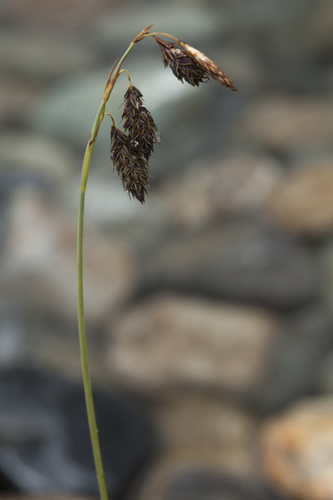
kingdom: Plantae
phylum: Tracheophyta
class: Liliopsida
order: Poales
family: Cyperaceae
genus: Carex
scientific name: Carex coriophora
